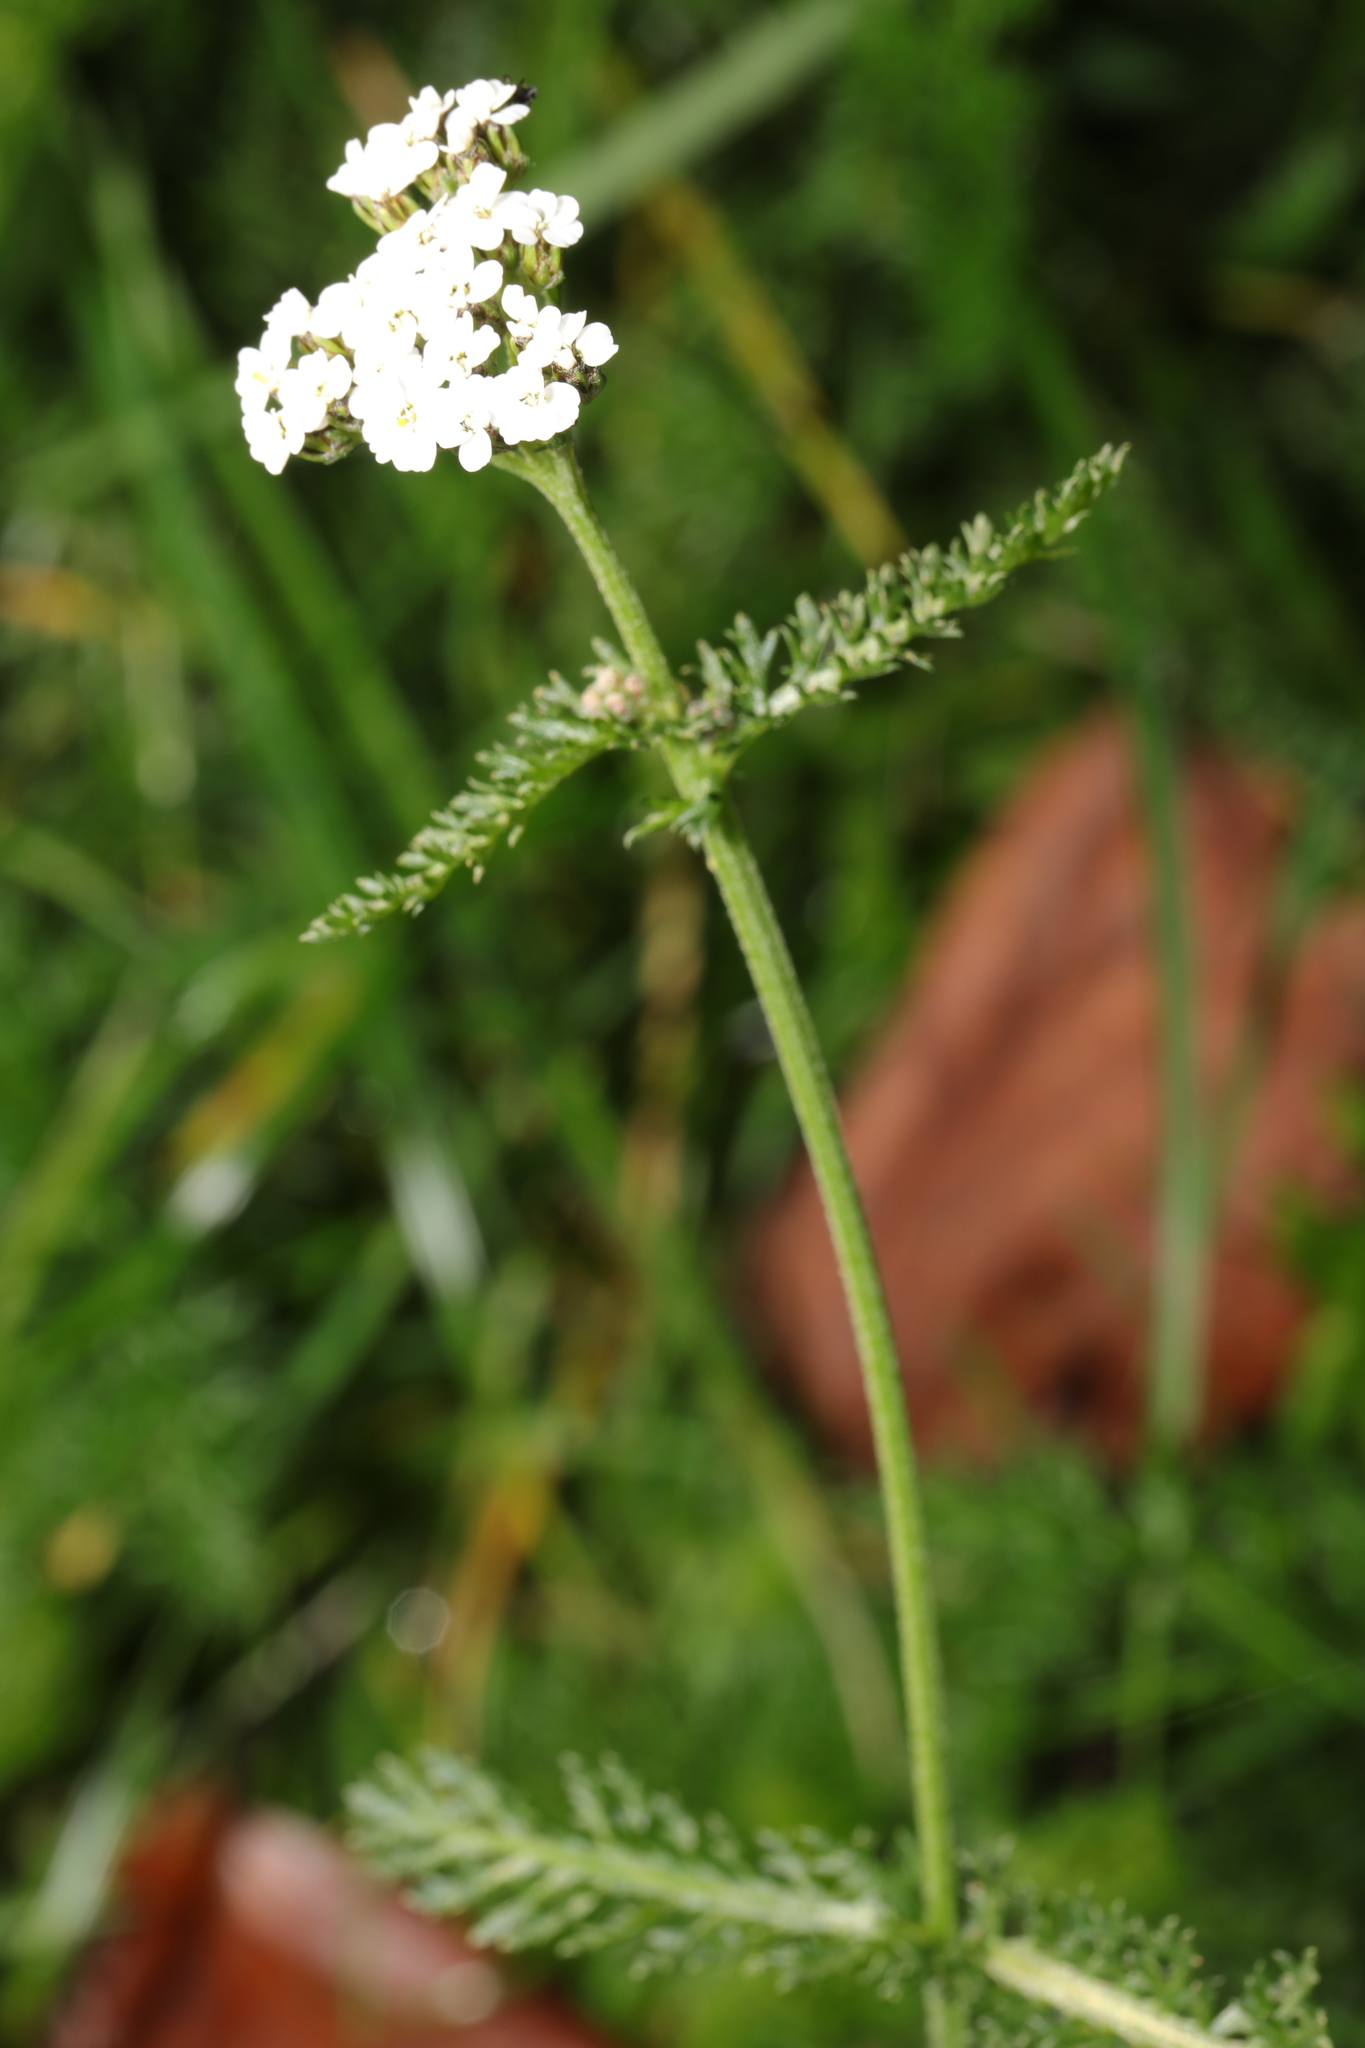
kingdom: Plantae
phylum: Tracheophyta
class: Magnoliopsida
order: Asterales
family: Asteraceae
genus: Achillea
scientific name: Achillea millefolium
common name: Yarrow
